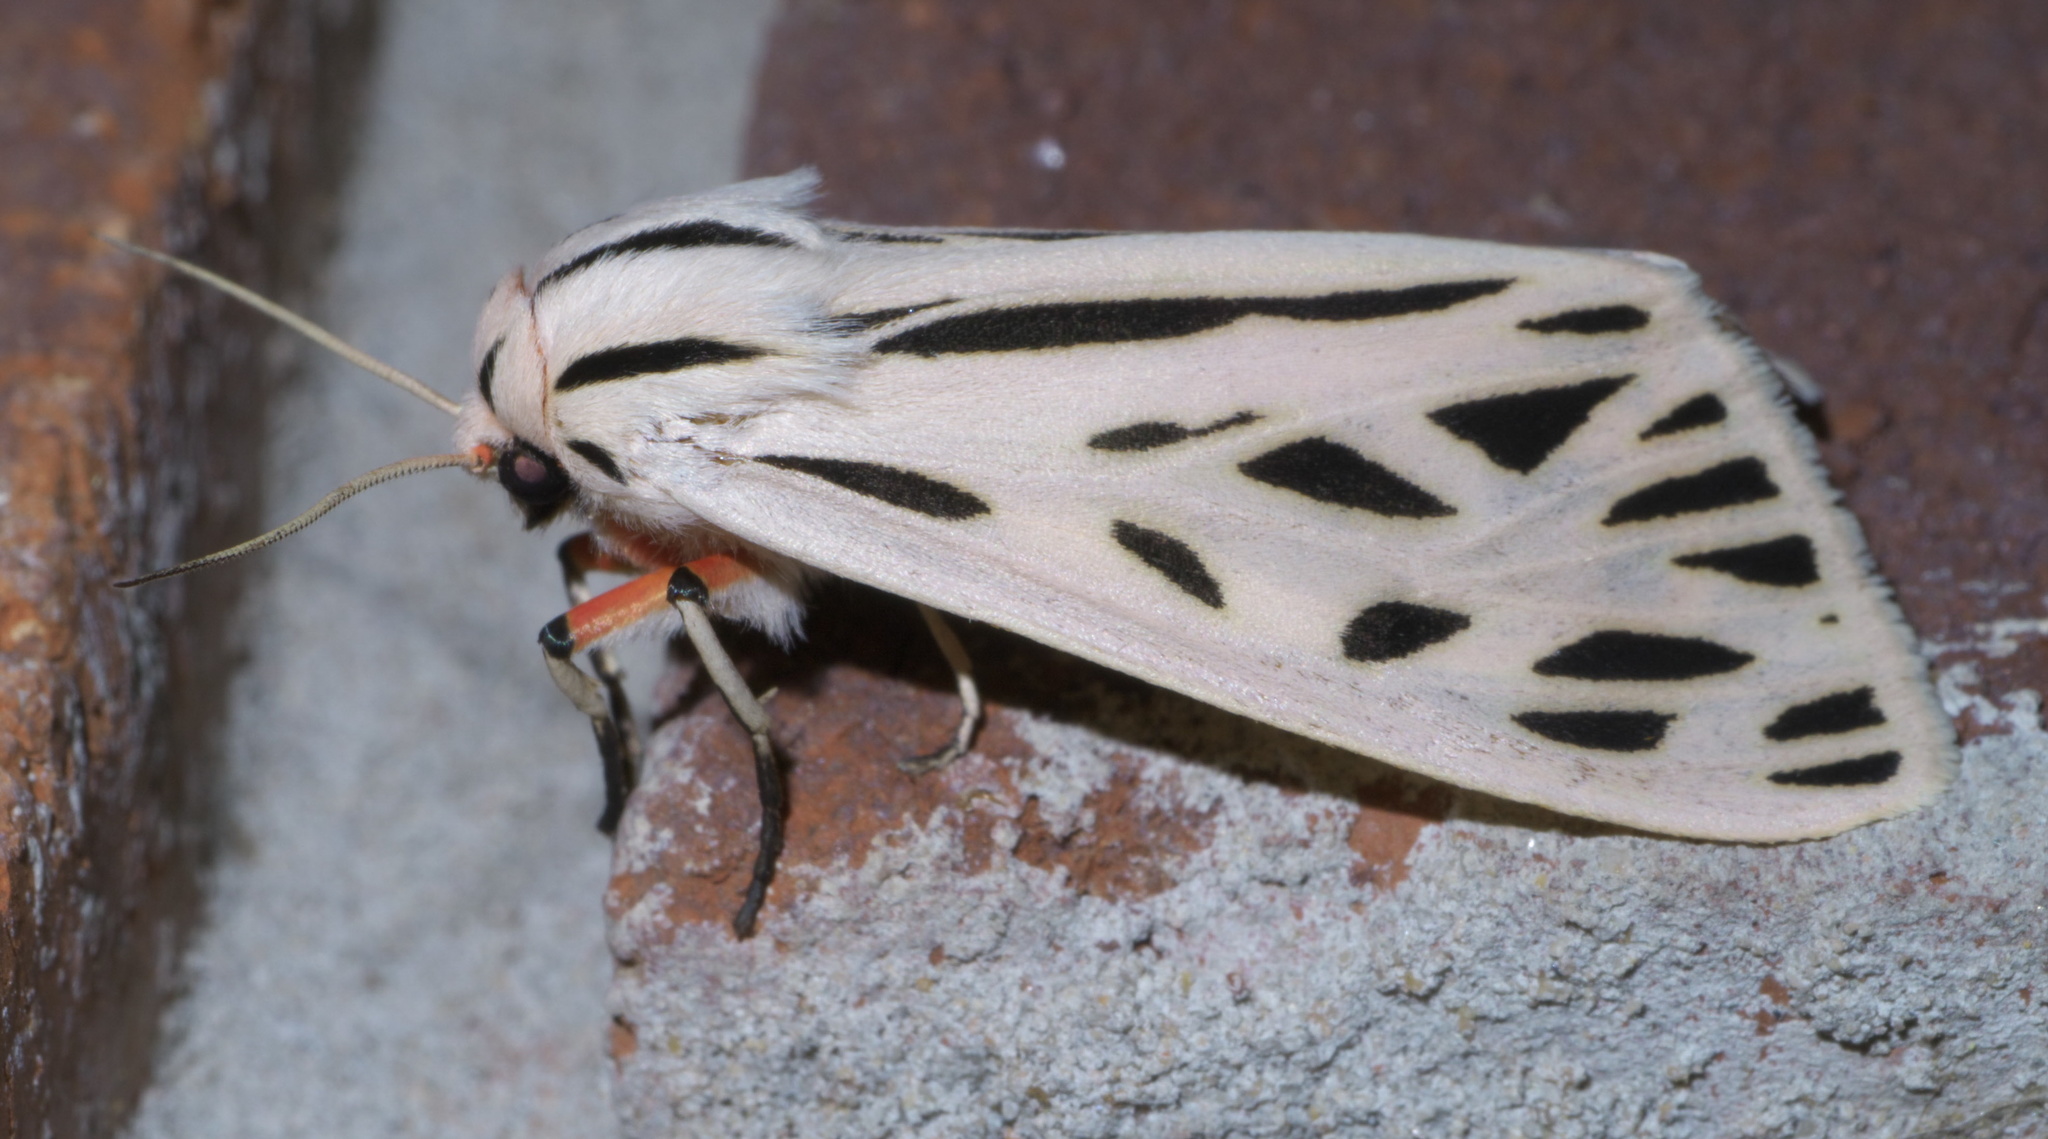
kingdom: Animalia
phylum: Arthropoda
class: Insecta
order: Lepidoptera
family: Erebidae
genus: Apantesis
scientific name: Apantesis arge
